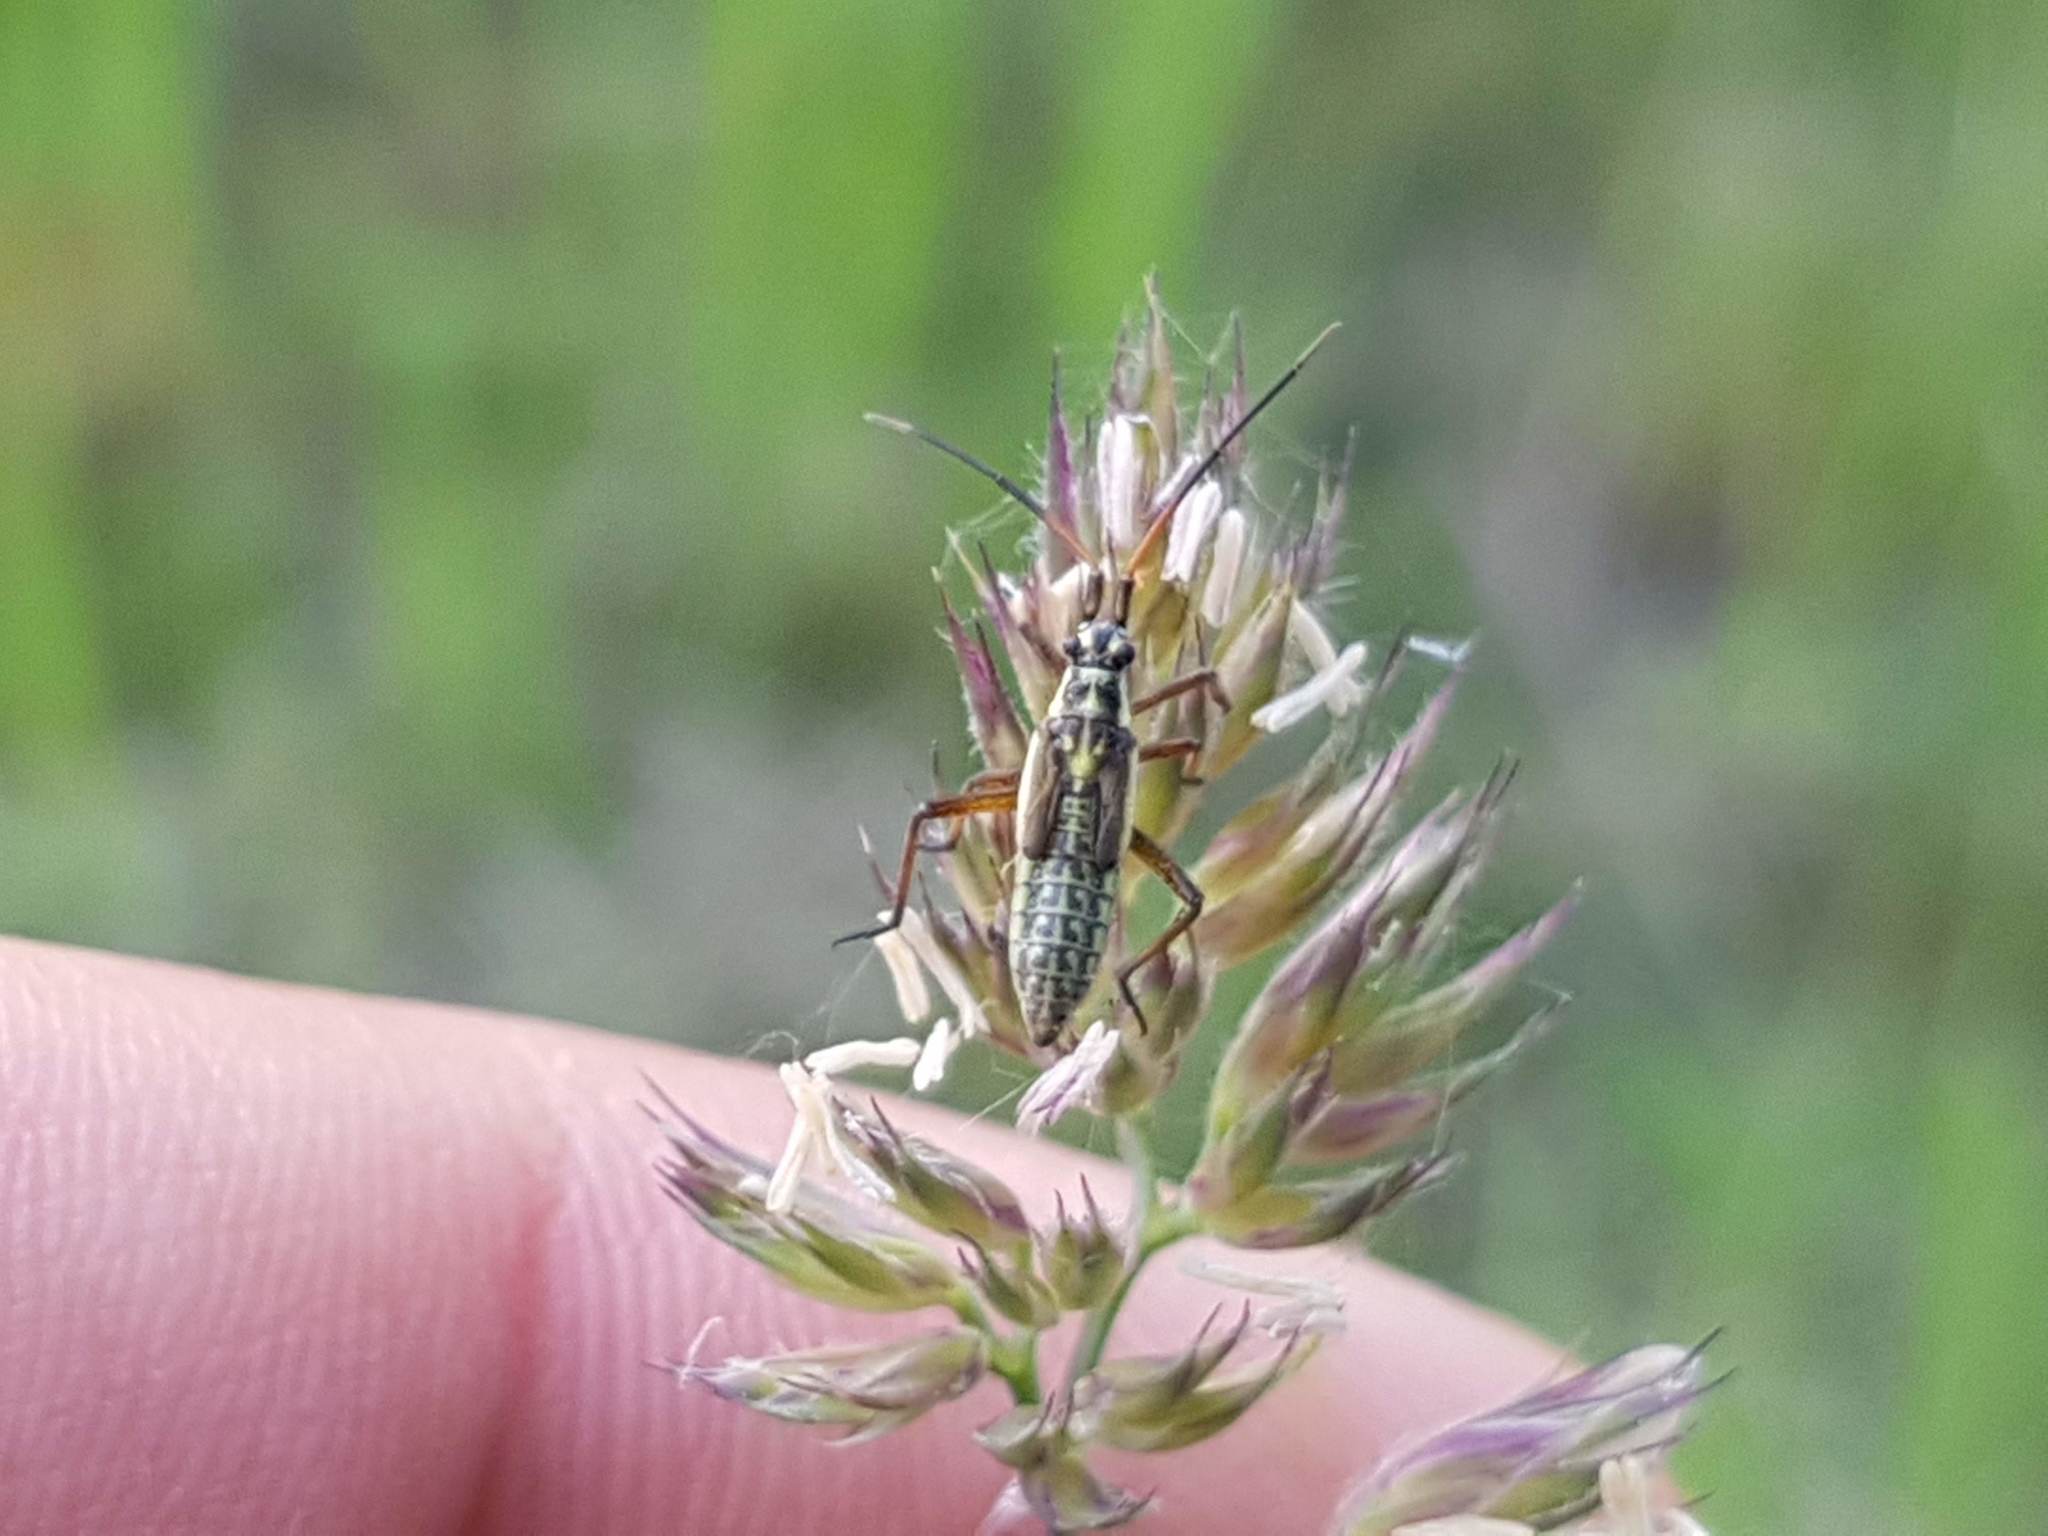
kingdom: Animalia
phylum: Arthropoda
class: Insecta
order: Hemiptera
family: Miridae
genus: Leptopterna
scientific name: Leptopterna dolabrata
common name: Meadow plant bug
